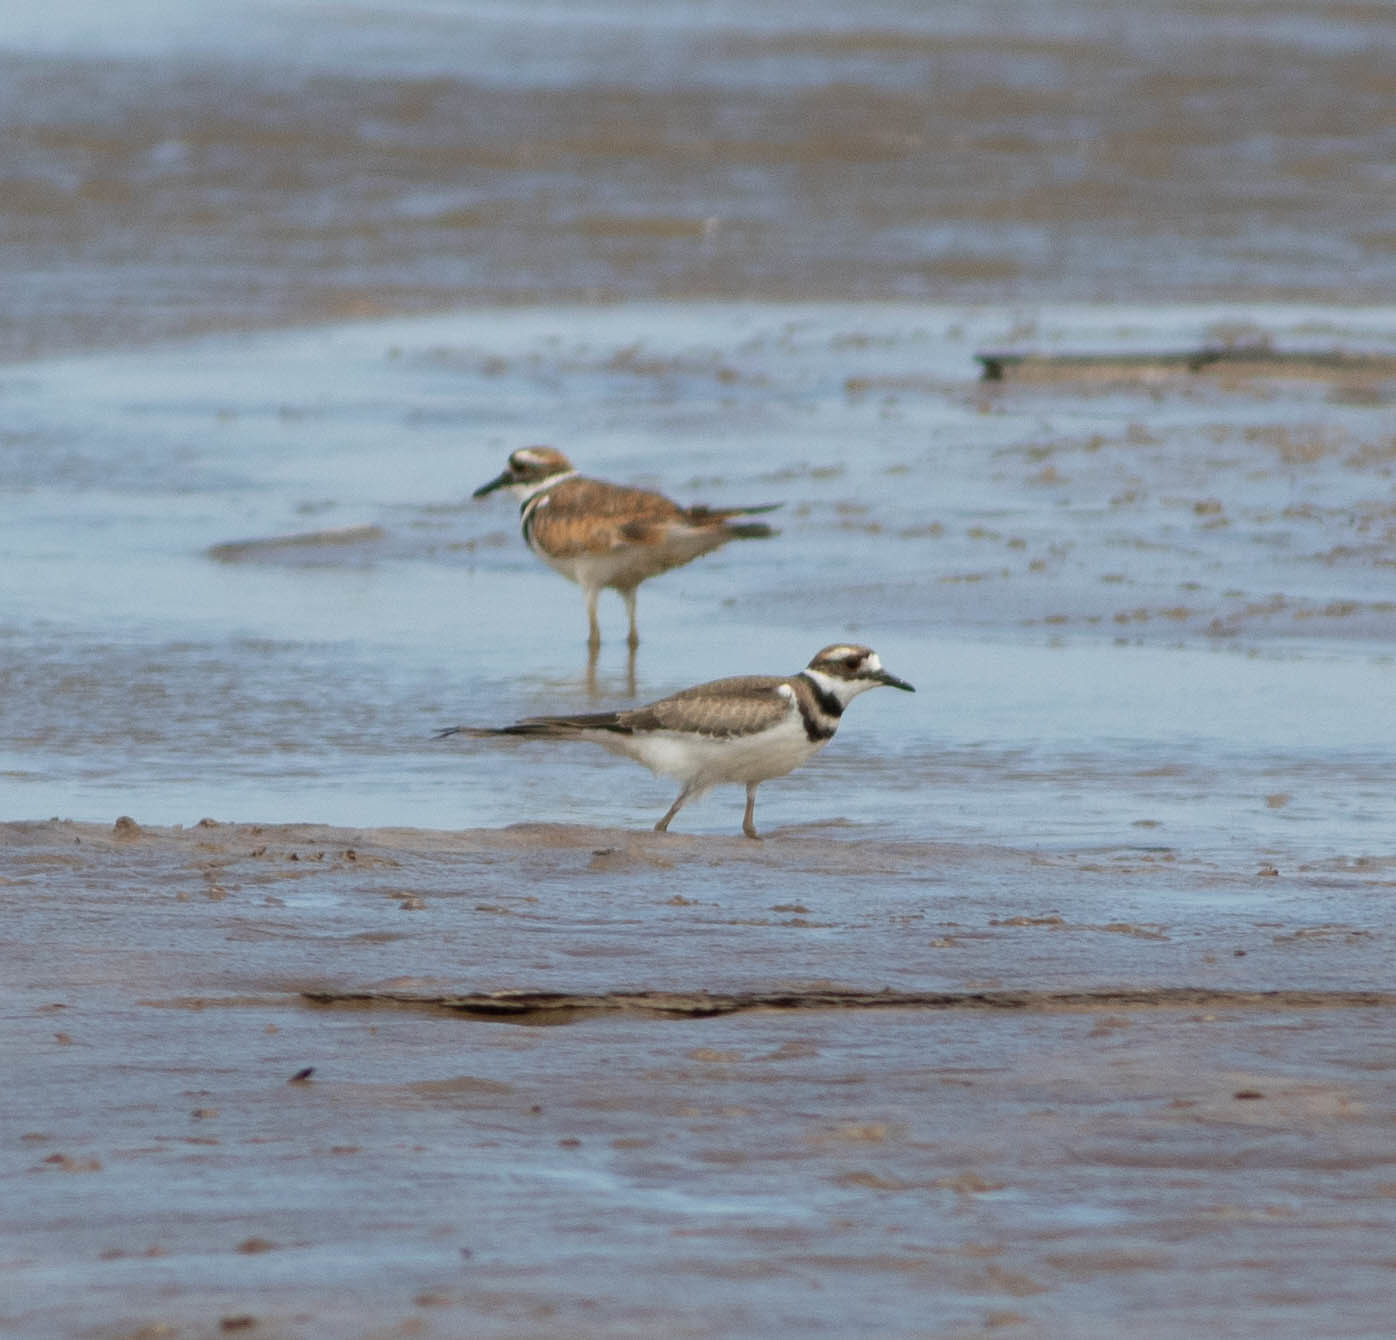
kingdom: Animalia
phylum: Chordata
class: Aves
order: Charadriiformes
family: Charadriidae
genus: Charadrius
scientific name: Charadrius vociferus
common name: Killdeer
